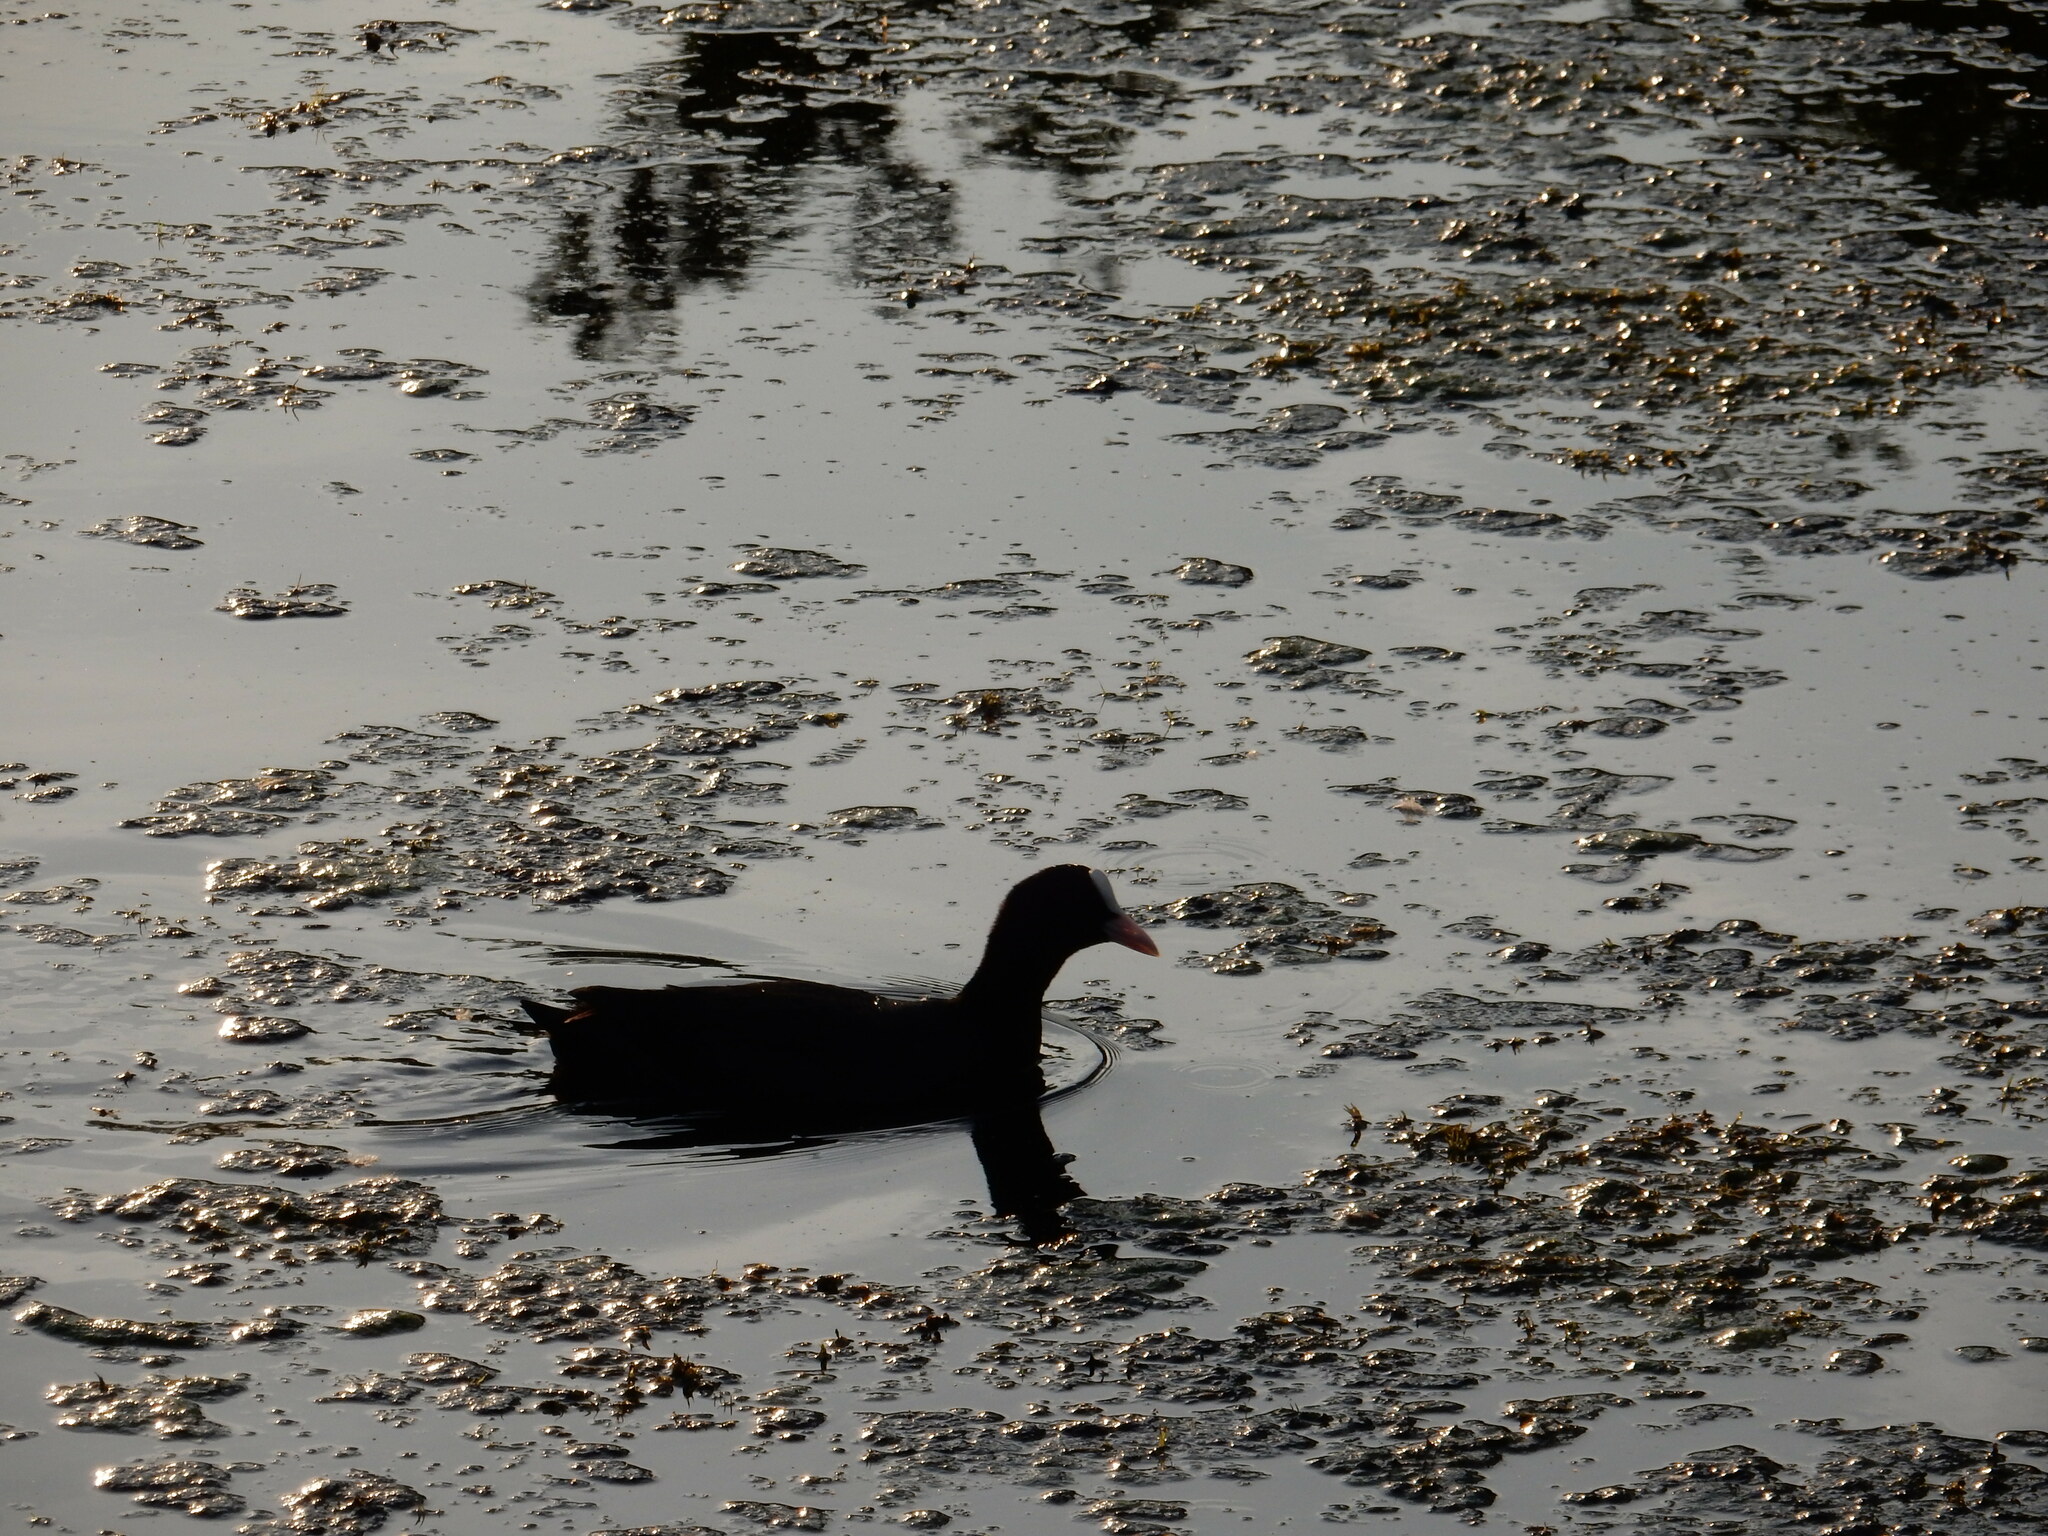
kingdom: Animalia
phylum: Chordata
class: Aves
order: Gruiformes
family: Rallidae
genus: Fulica
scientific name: Fulica atra
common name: Eurasian coot
